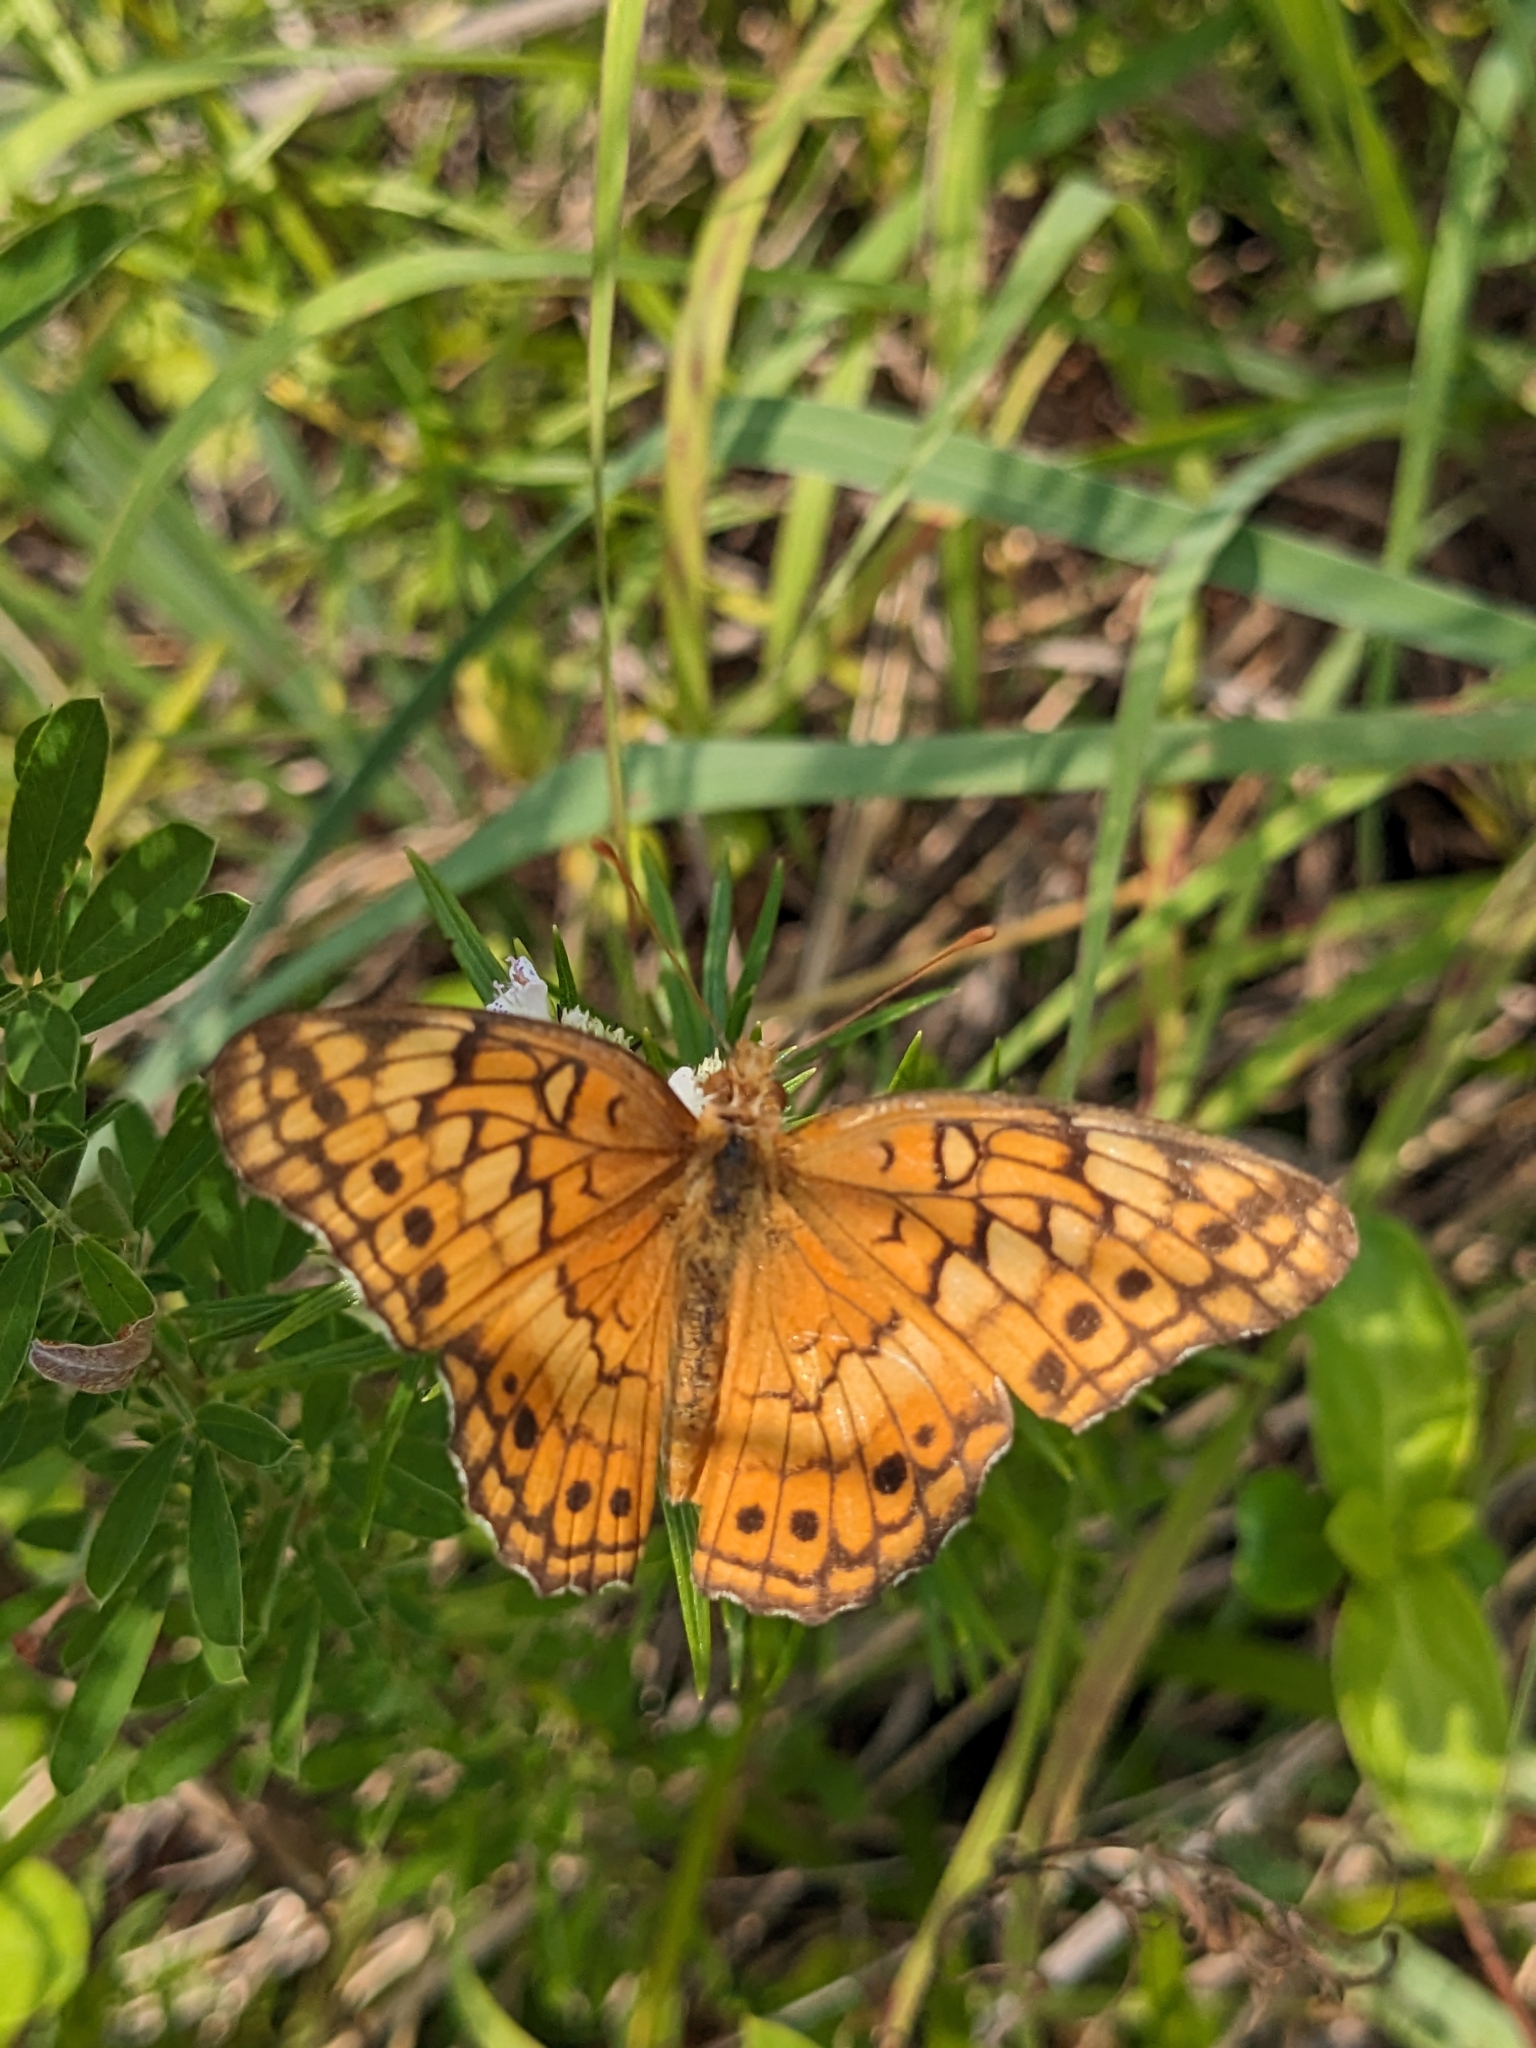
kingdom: Animalia
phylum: Arthropoda
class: Insecta
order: Lepidoptera
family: Nymphalidae
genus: Euptoieta
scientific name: Euptoieta claudia
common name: Variegated fritillary
